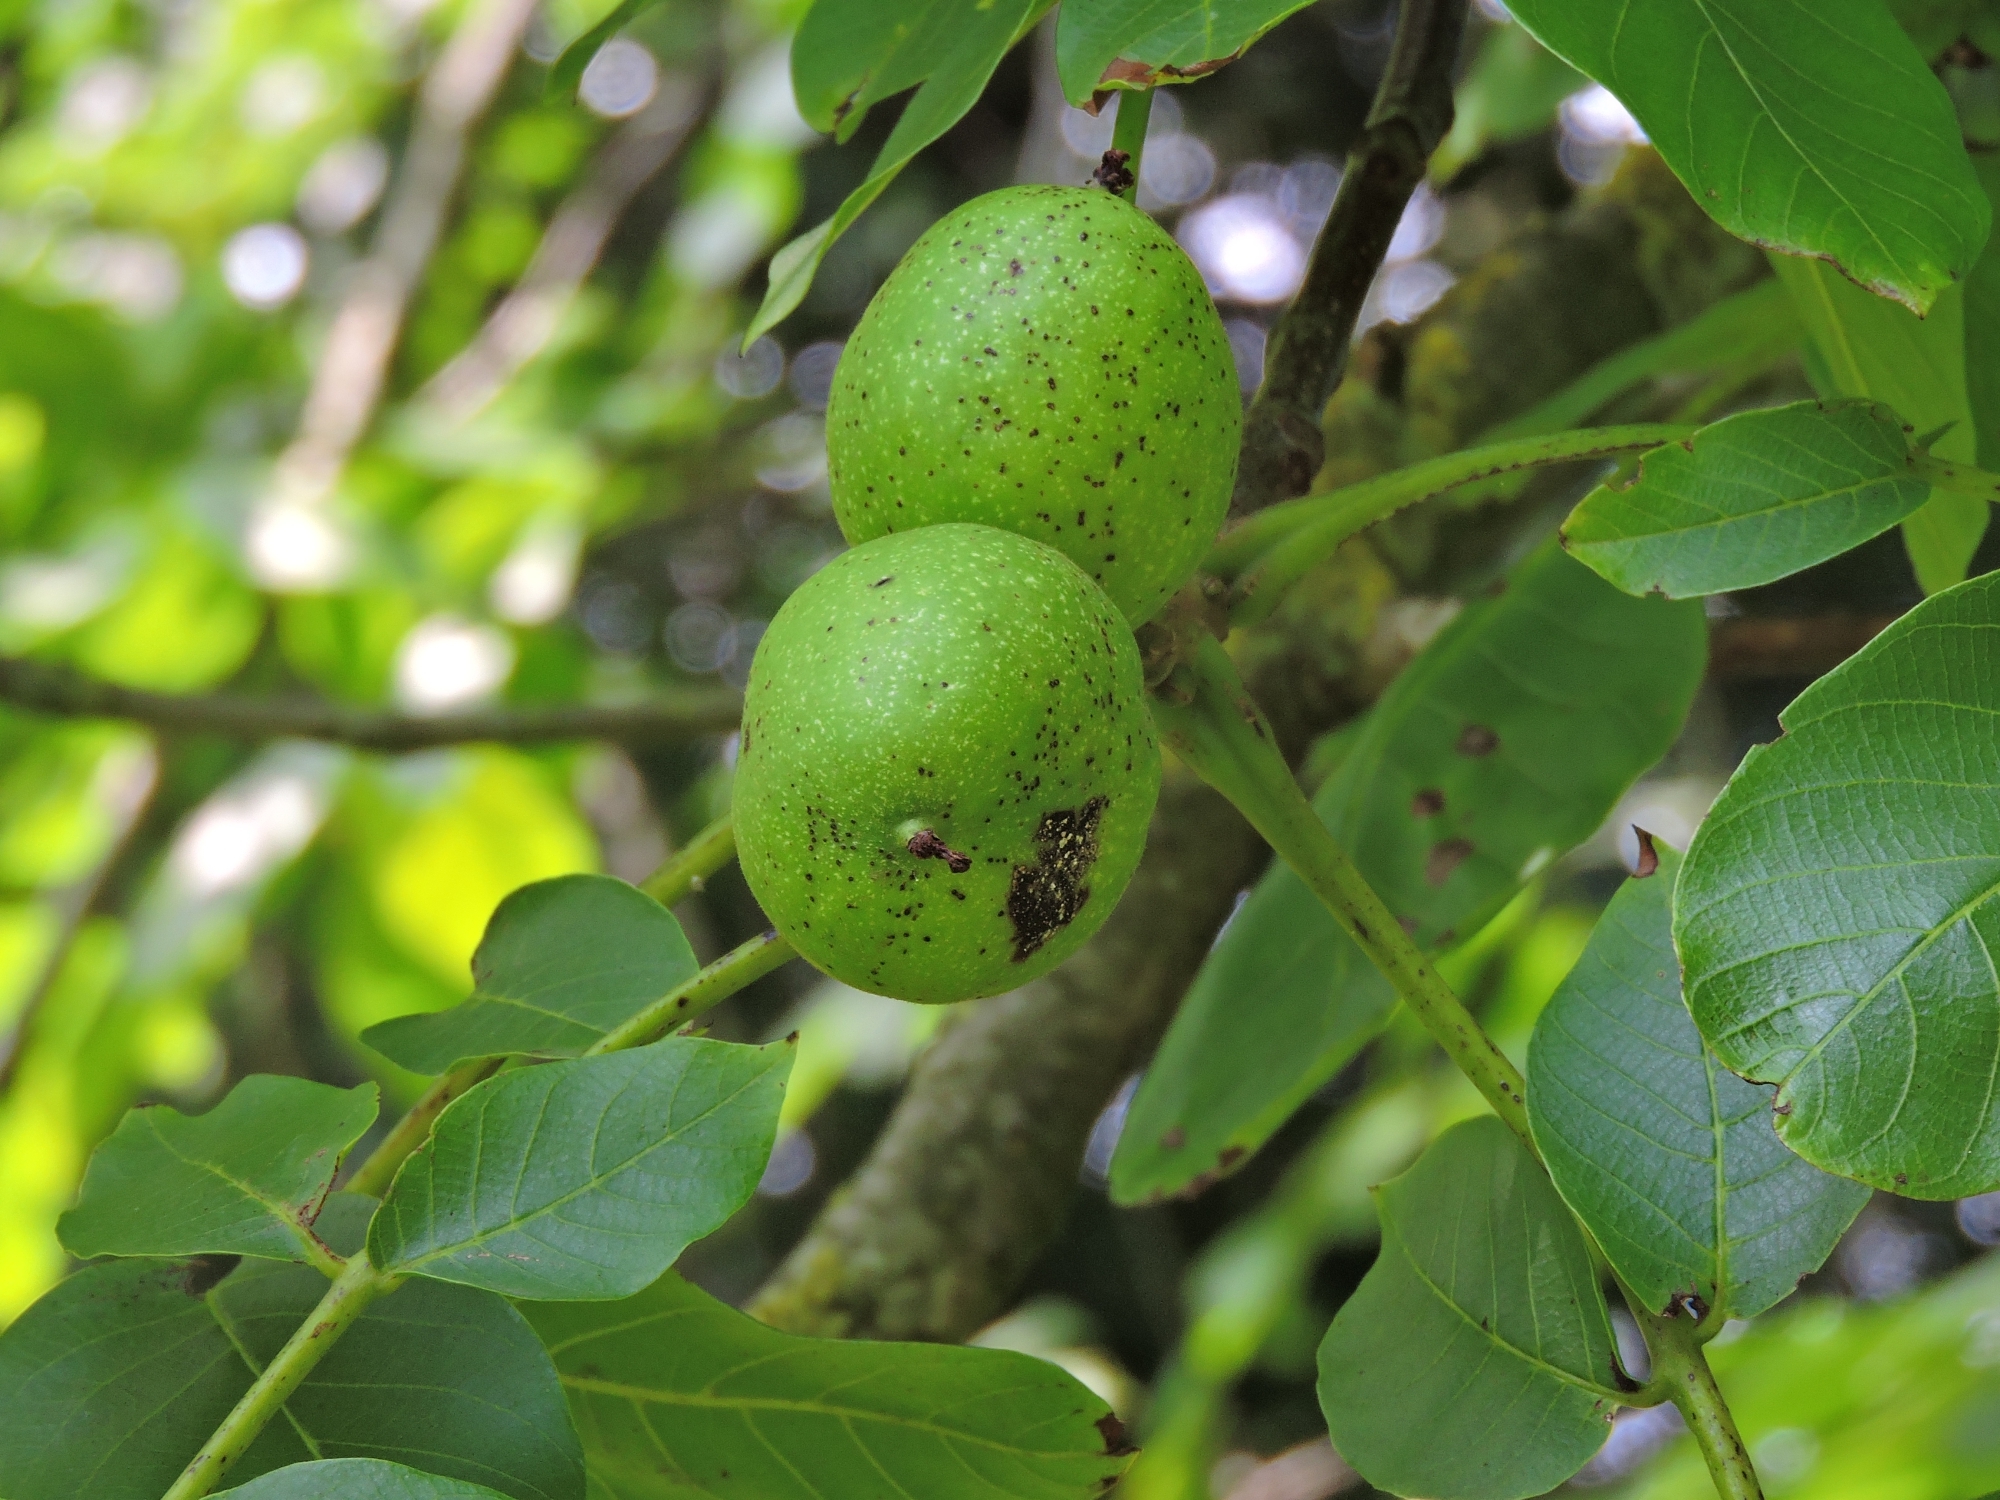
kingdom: Plantae
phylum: Tracheophyta
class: Magnoliopsida
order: Fagales
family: Juglandaceae
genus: Juglans
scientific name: Juglans regia
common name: Walnut
